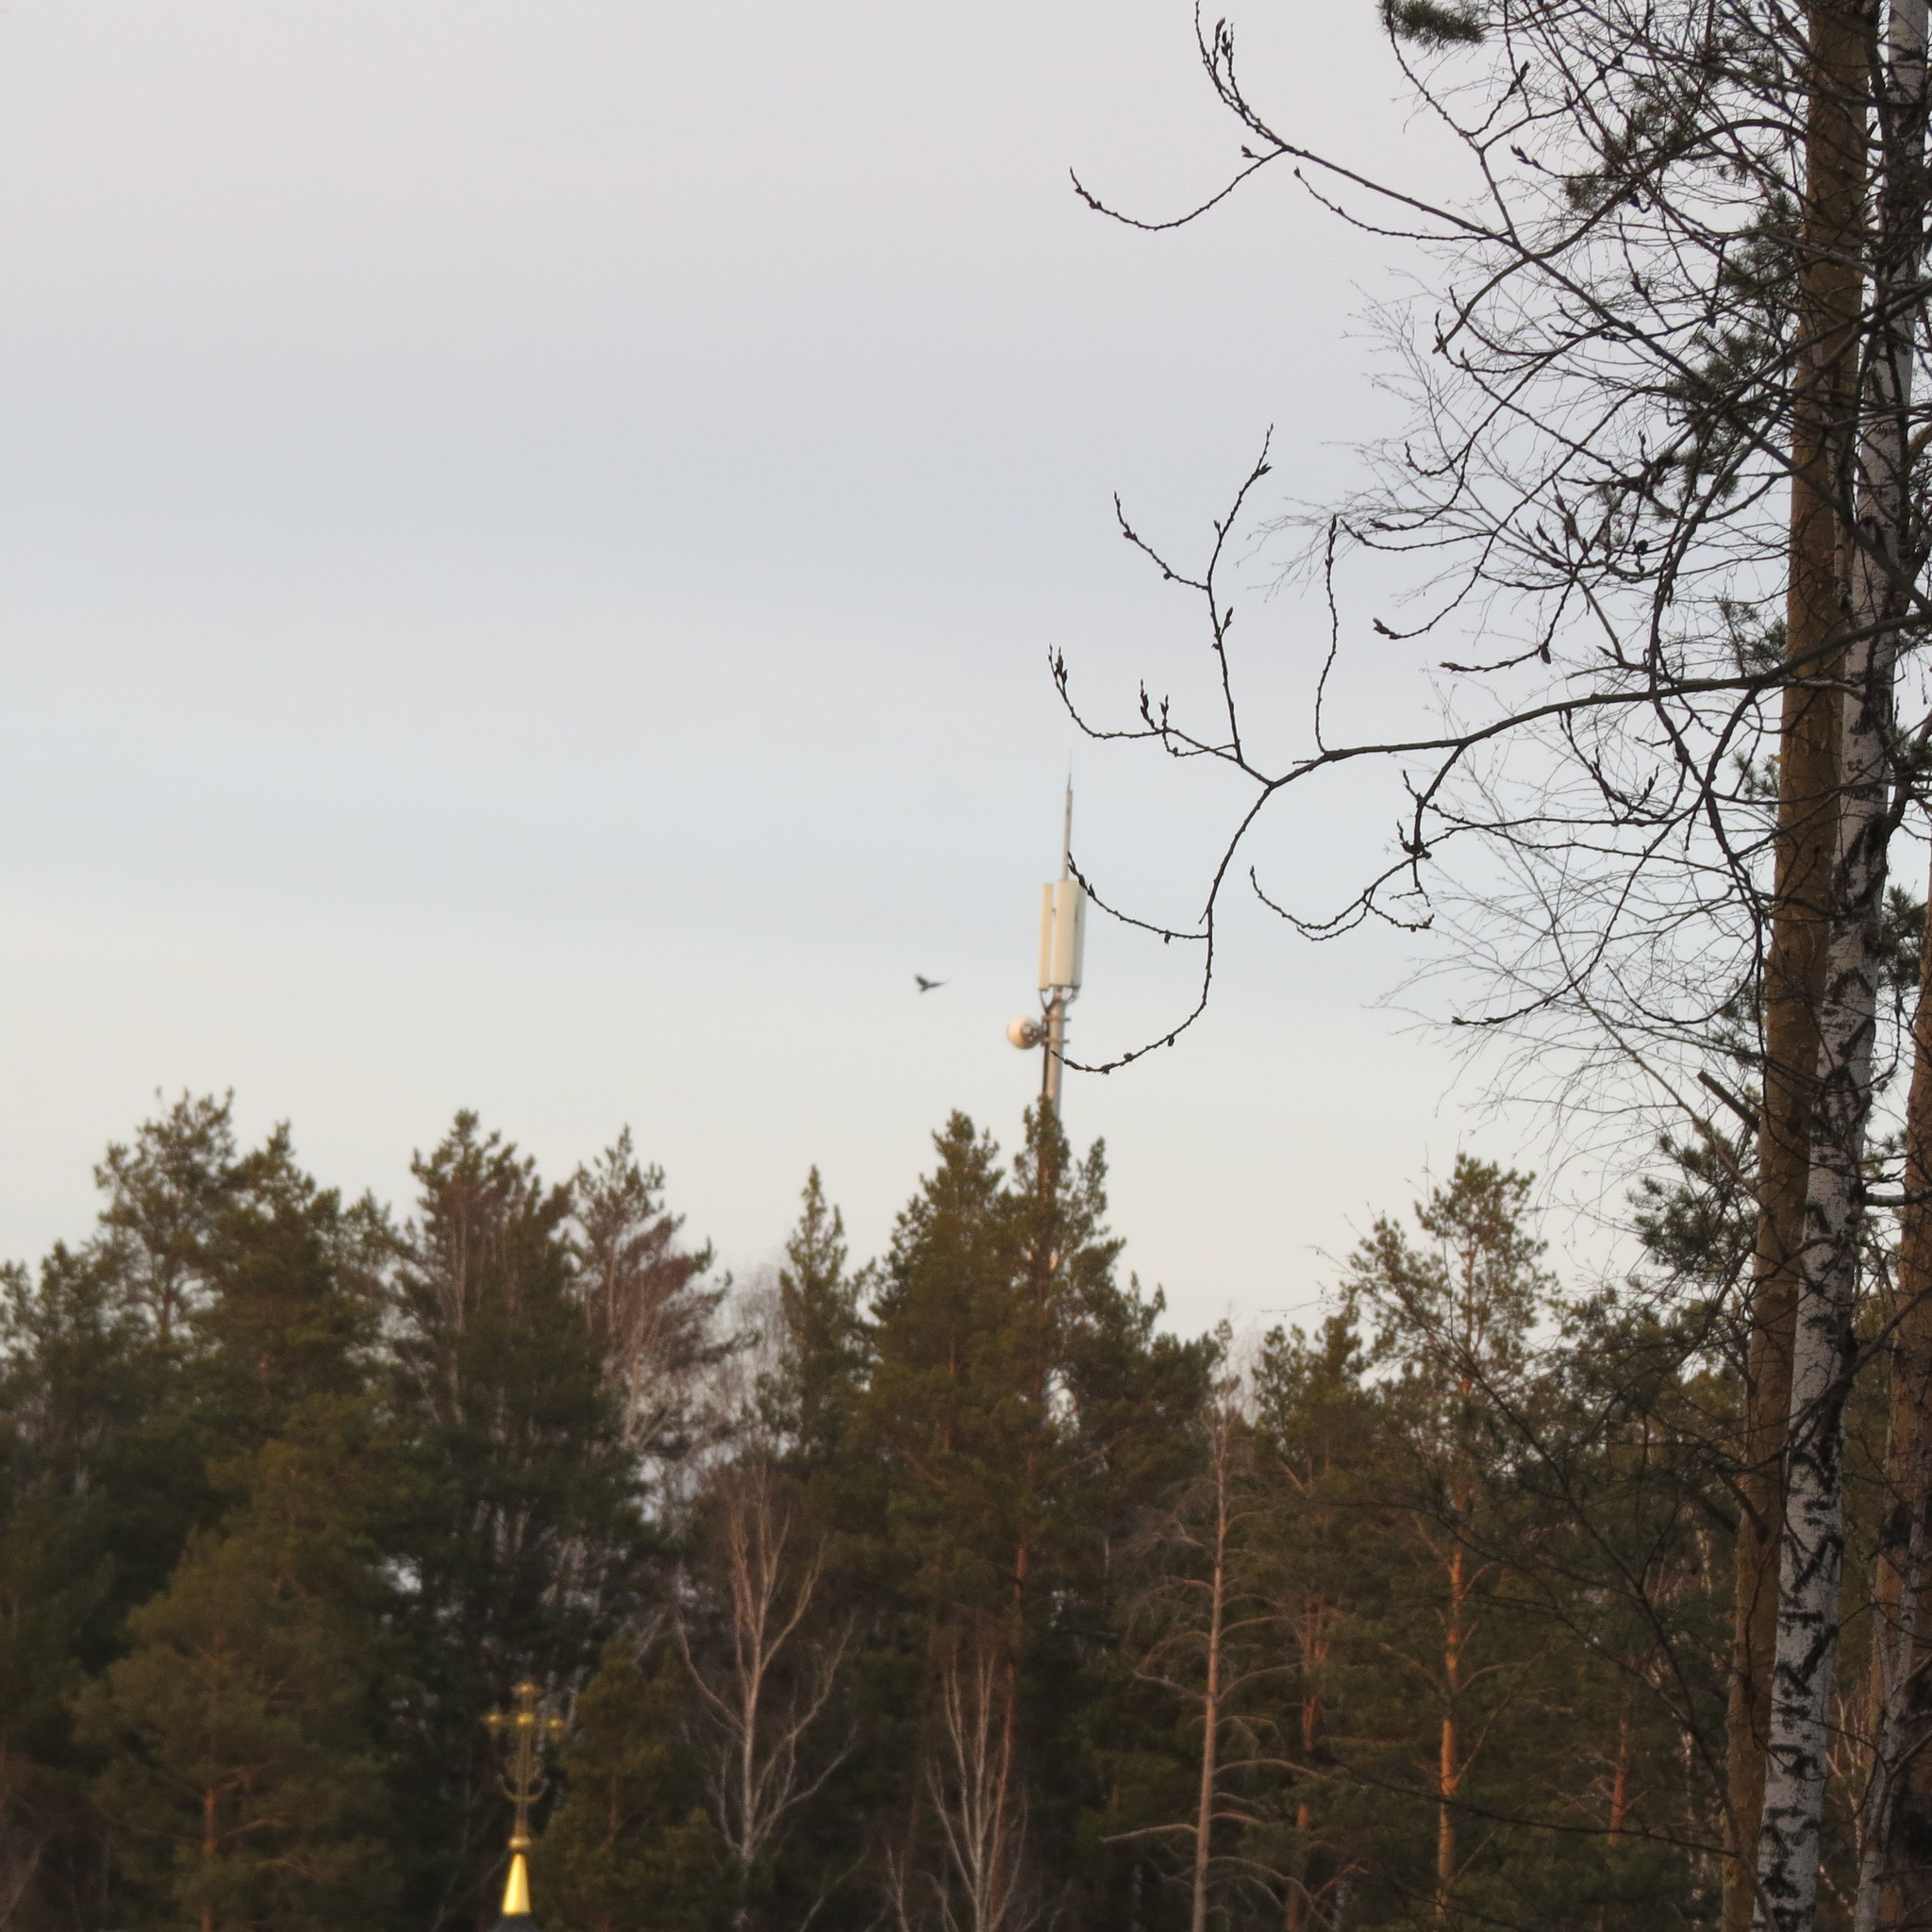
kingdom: Animalia
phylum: Chordata
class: Aves
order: Passeriformes
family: Corvidae
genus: Corvus
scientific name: Corvus cornix
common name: Hooded crow
